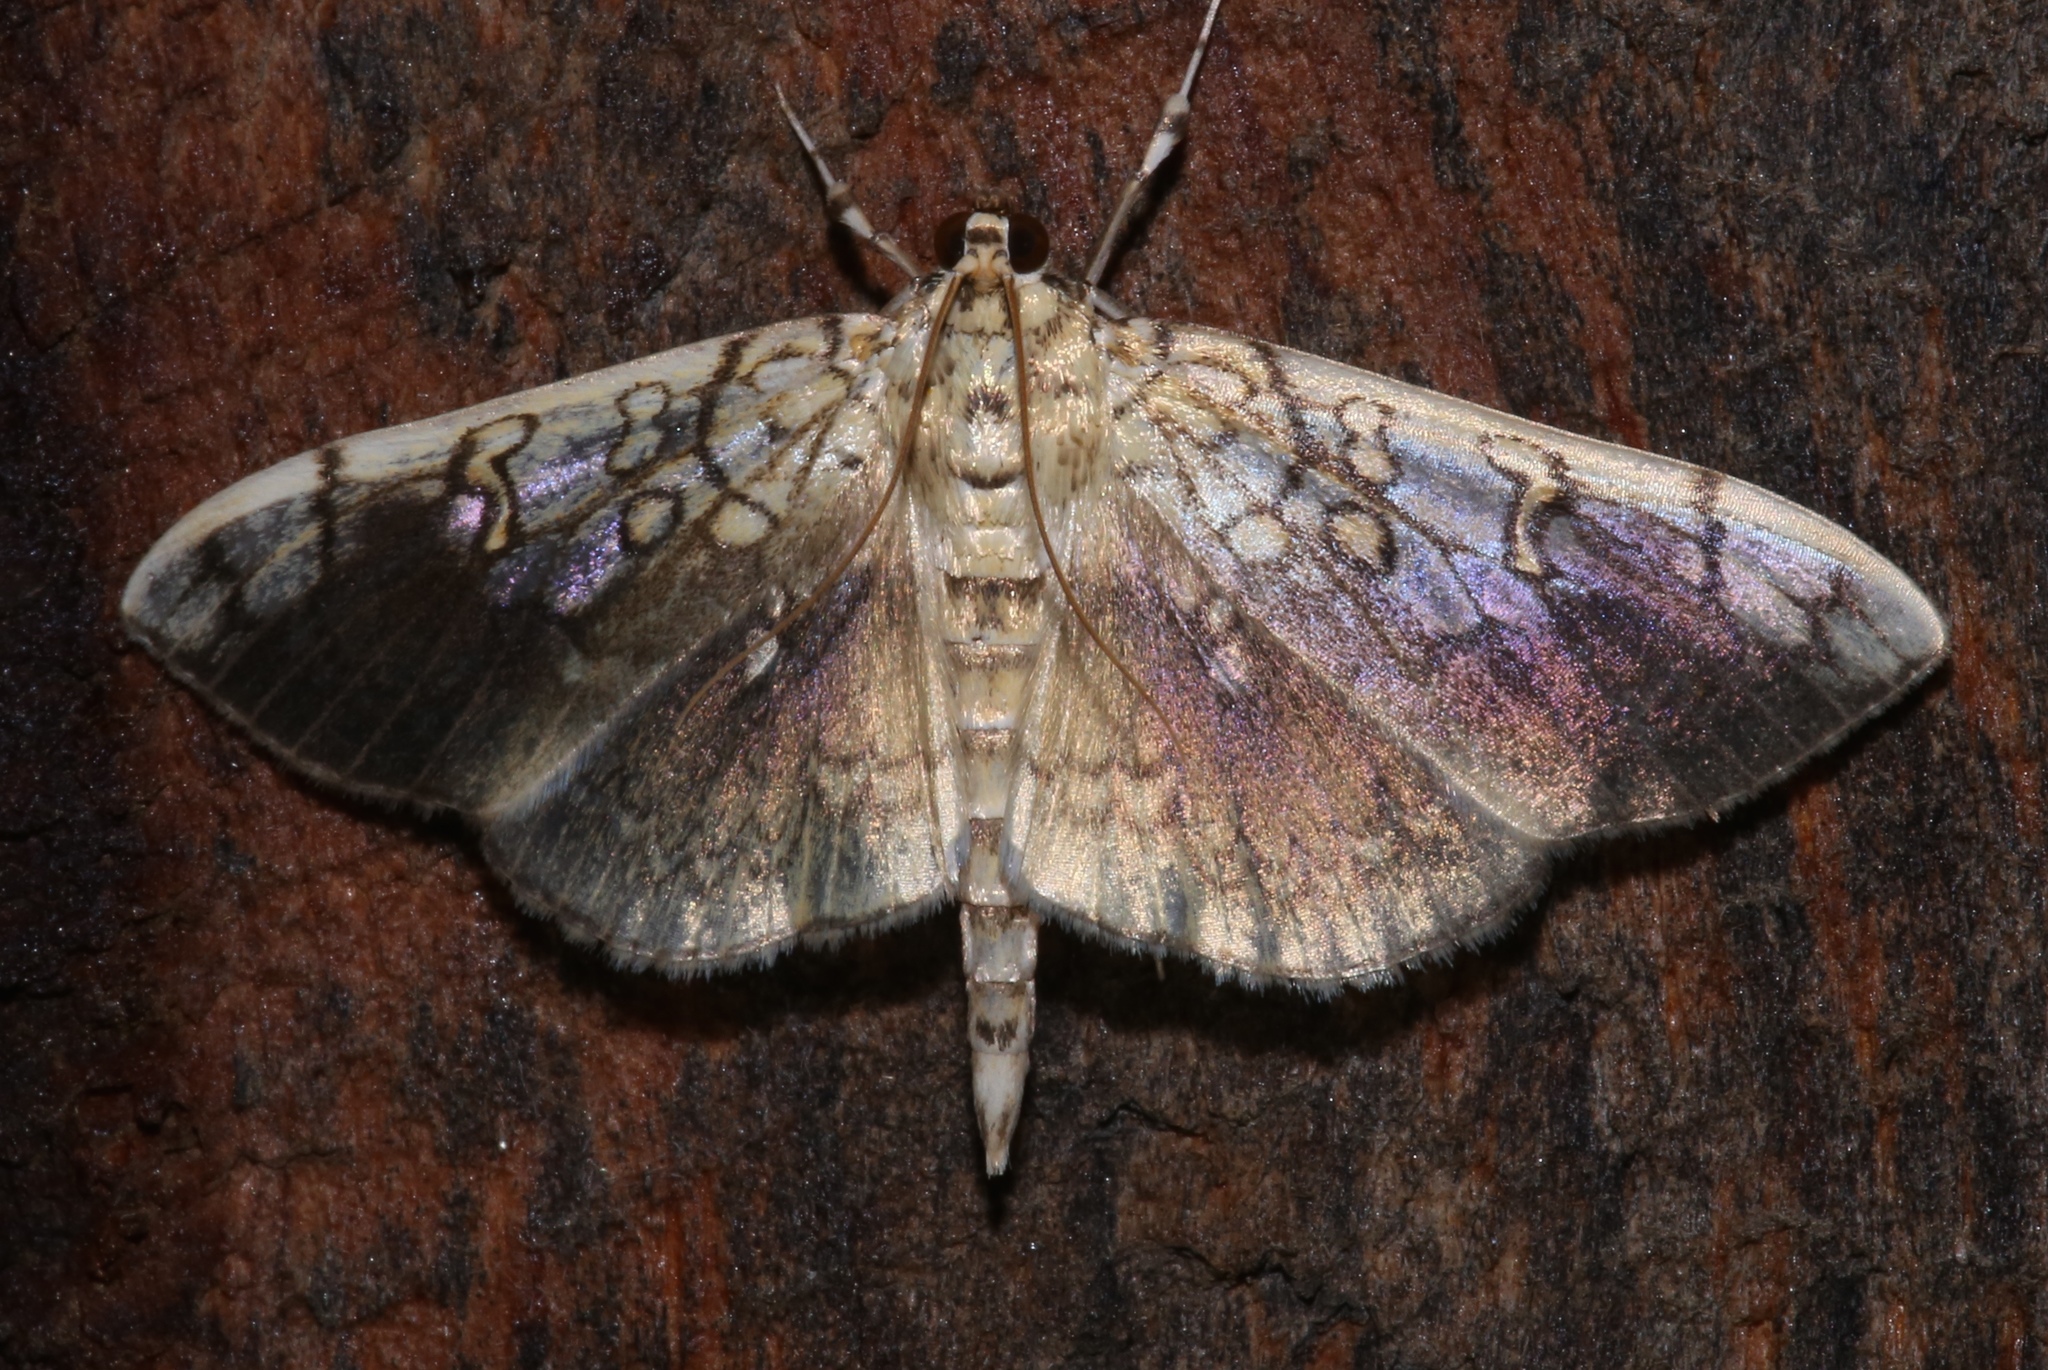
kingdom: Animalia
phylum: Arthropoda
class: Insecta
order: Lepidoptera
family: Crambidae
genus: Pantographa
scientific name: Pantographa limata
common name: Basswood leafroller moth
